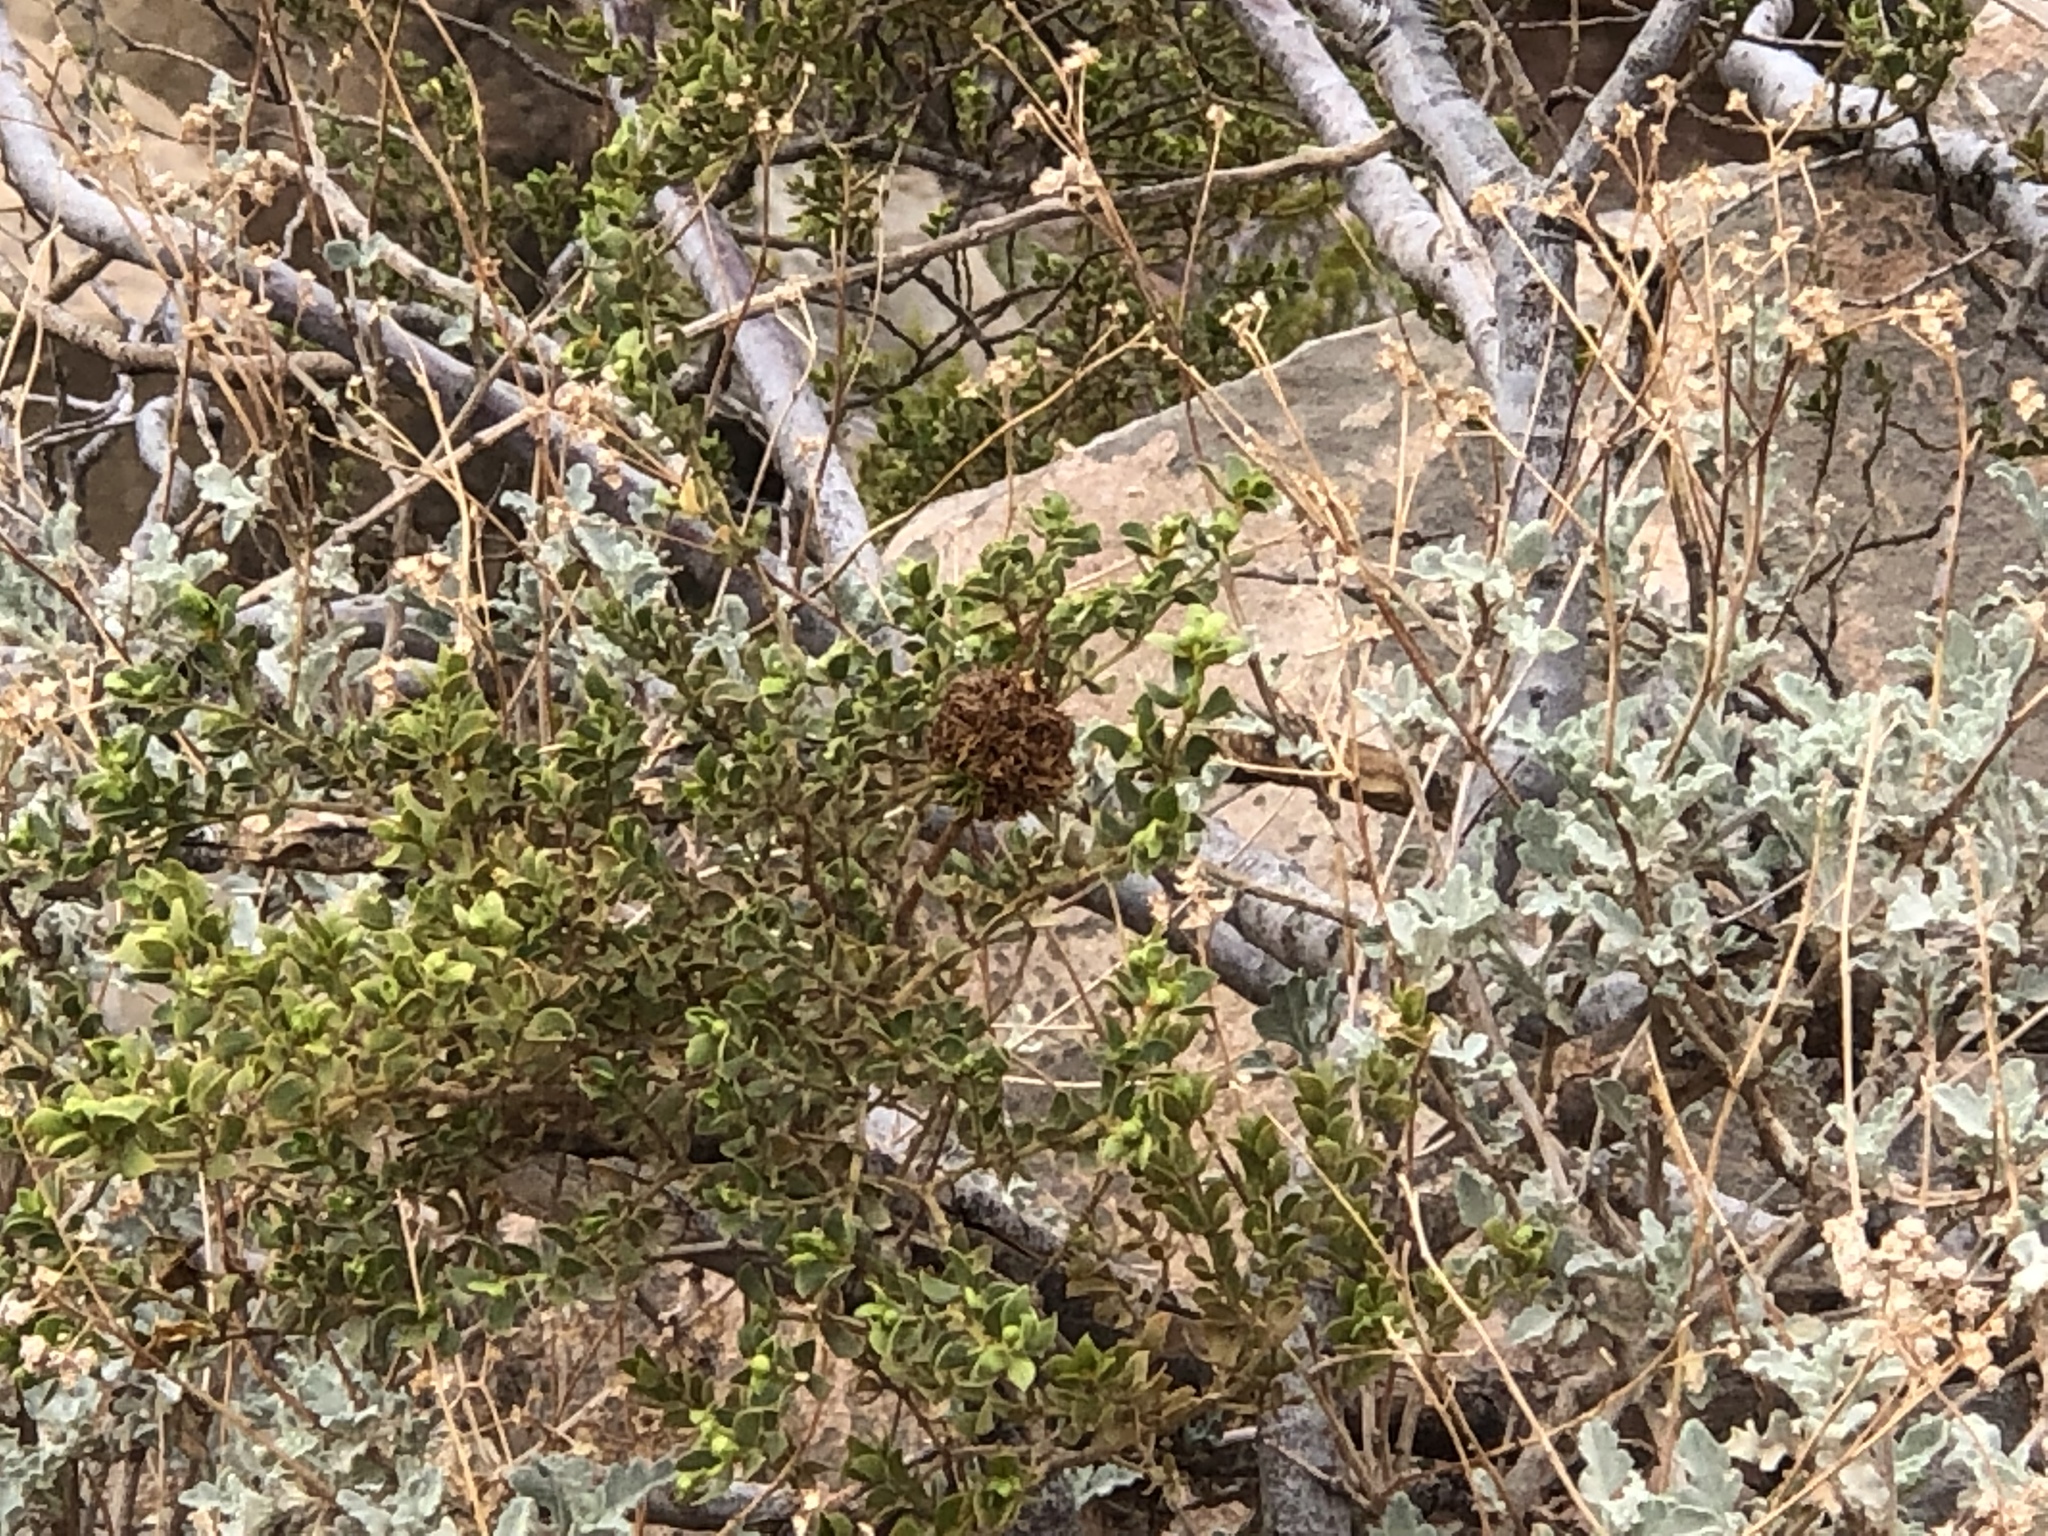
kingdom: Animalia
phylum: Arthropoda
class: Insecta
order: Diptera
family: Cecidomyiidae
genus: Asphondylia
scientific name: Asphondylia auripila
